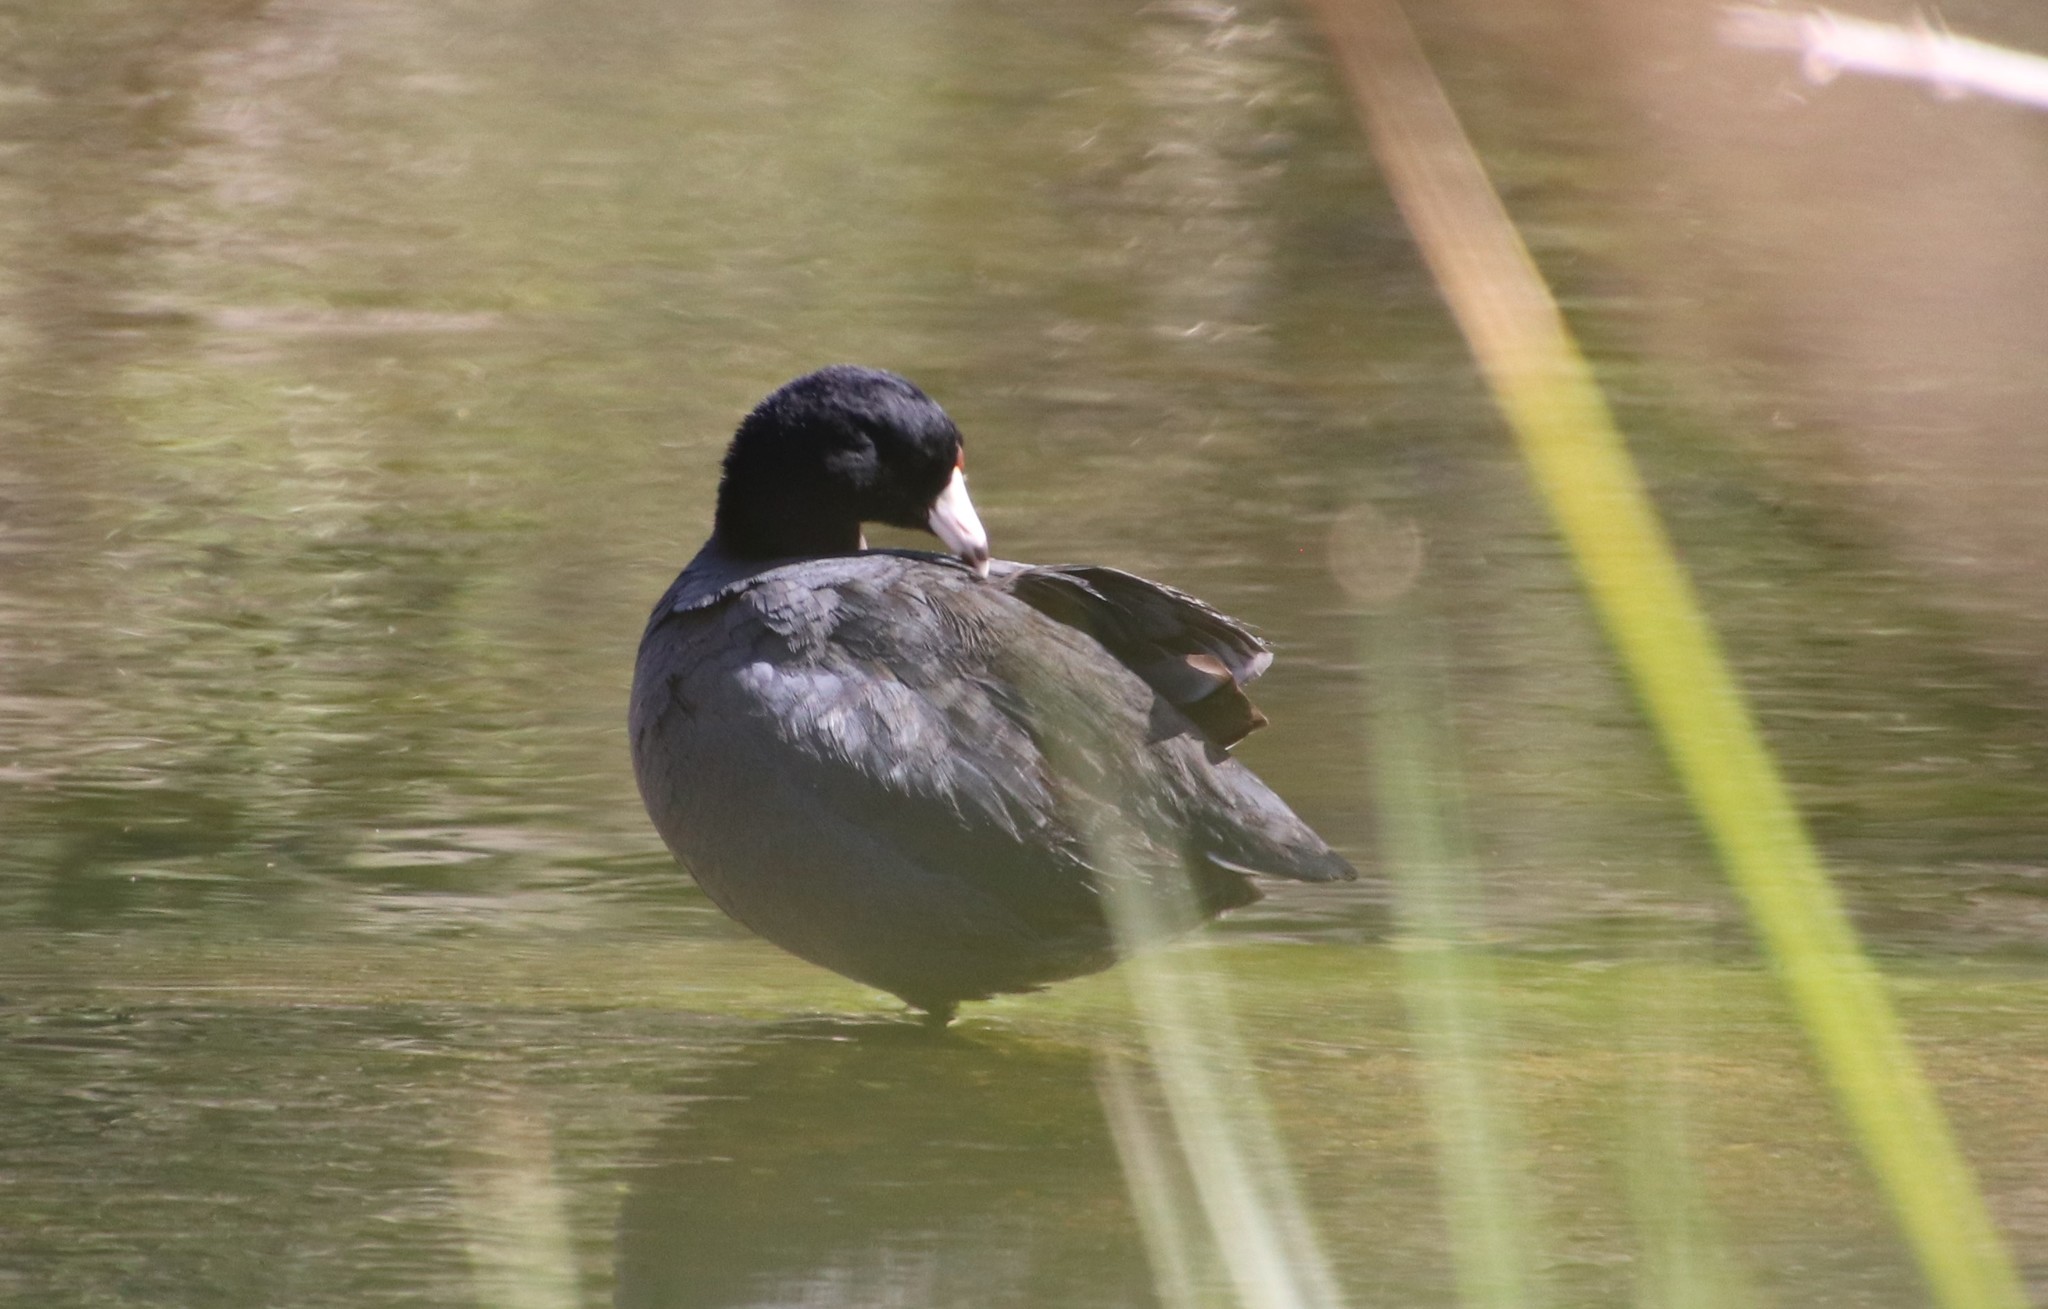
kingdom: Animalia
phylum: Chordata
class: Aves
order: Gruiformes
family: Rallidae
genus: Fulica
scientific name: Fulica americana
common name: American coot
